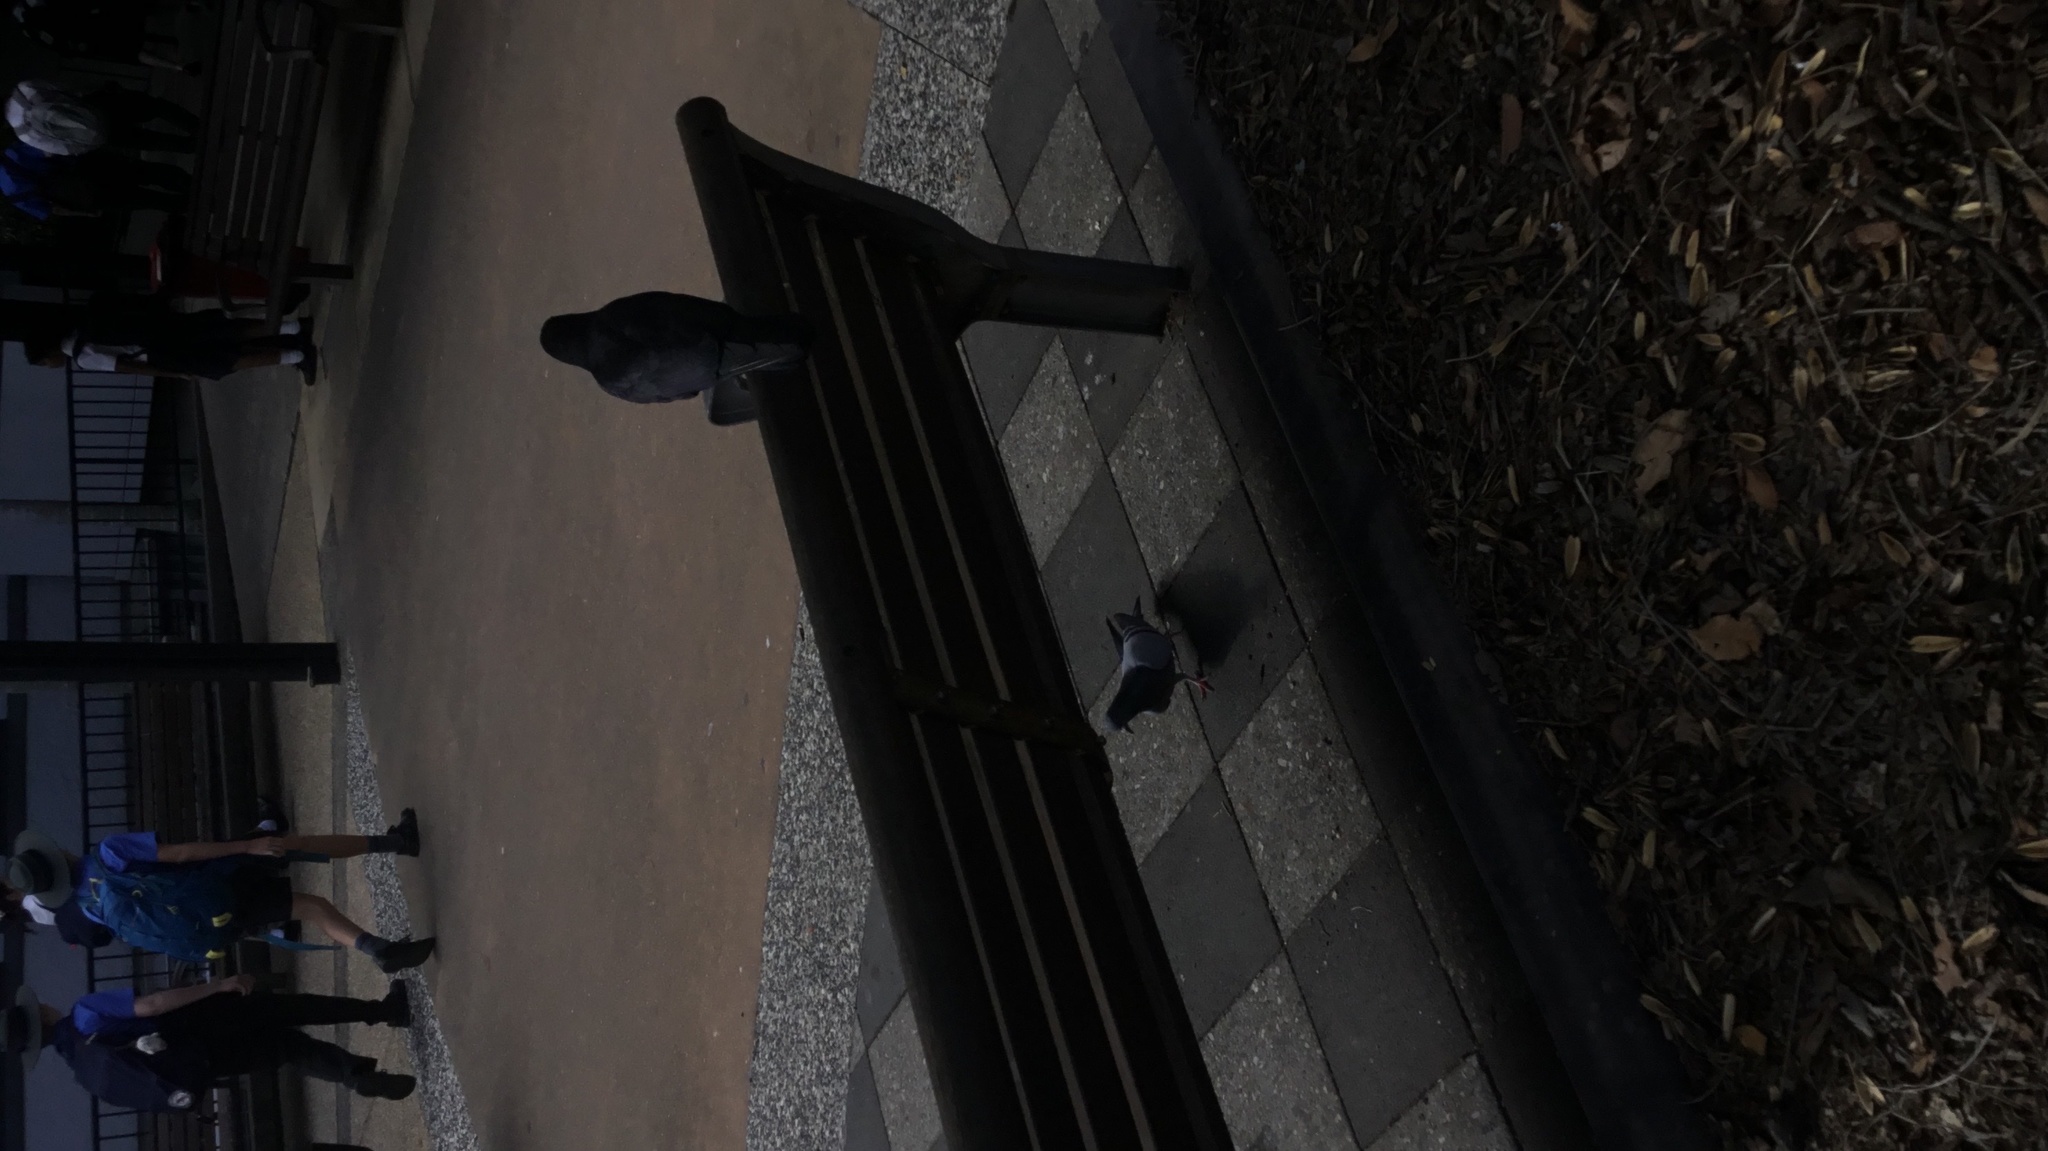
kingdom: Animalia
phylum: Chordata
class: Aves
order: Passeriformes
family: Corvidae
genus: Corvus
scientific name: Corvus orru
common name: Torresian crow
